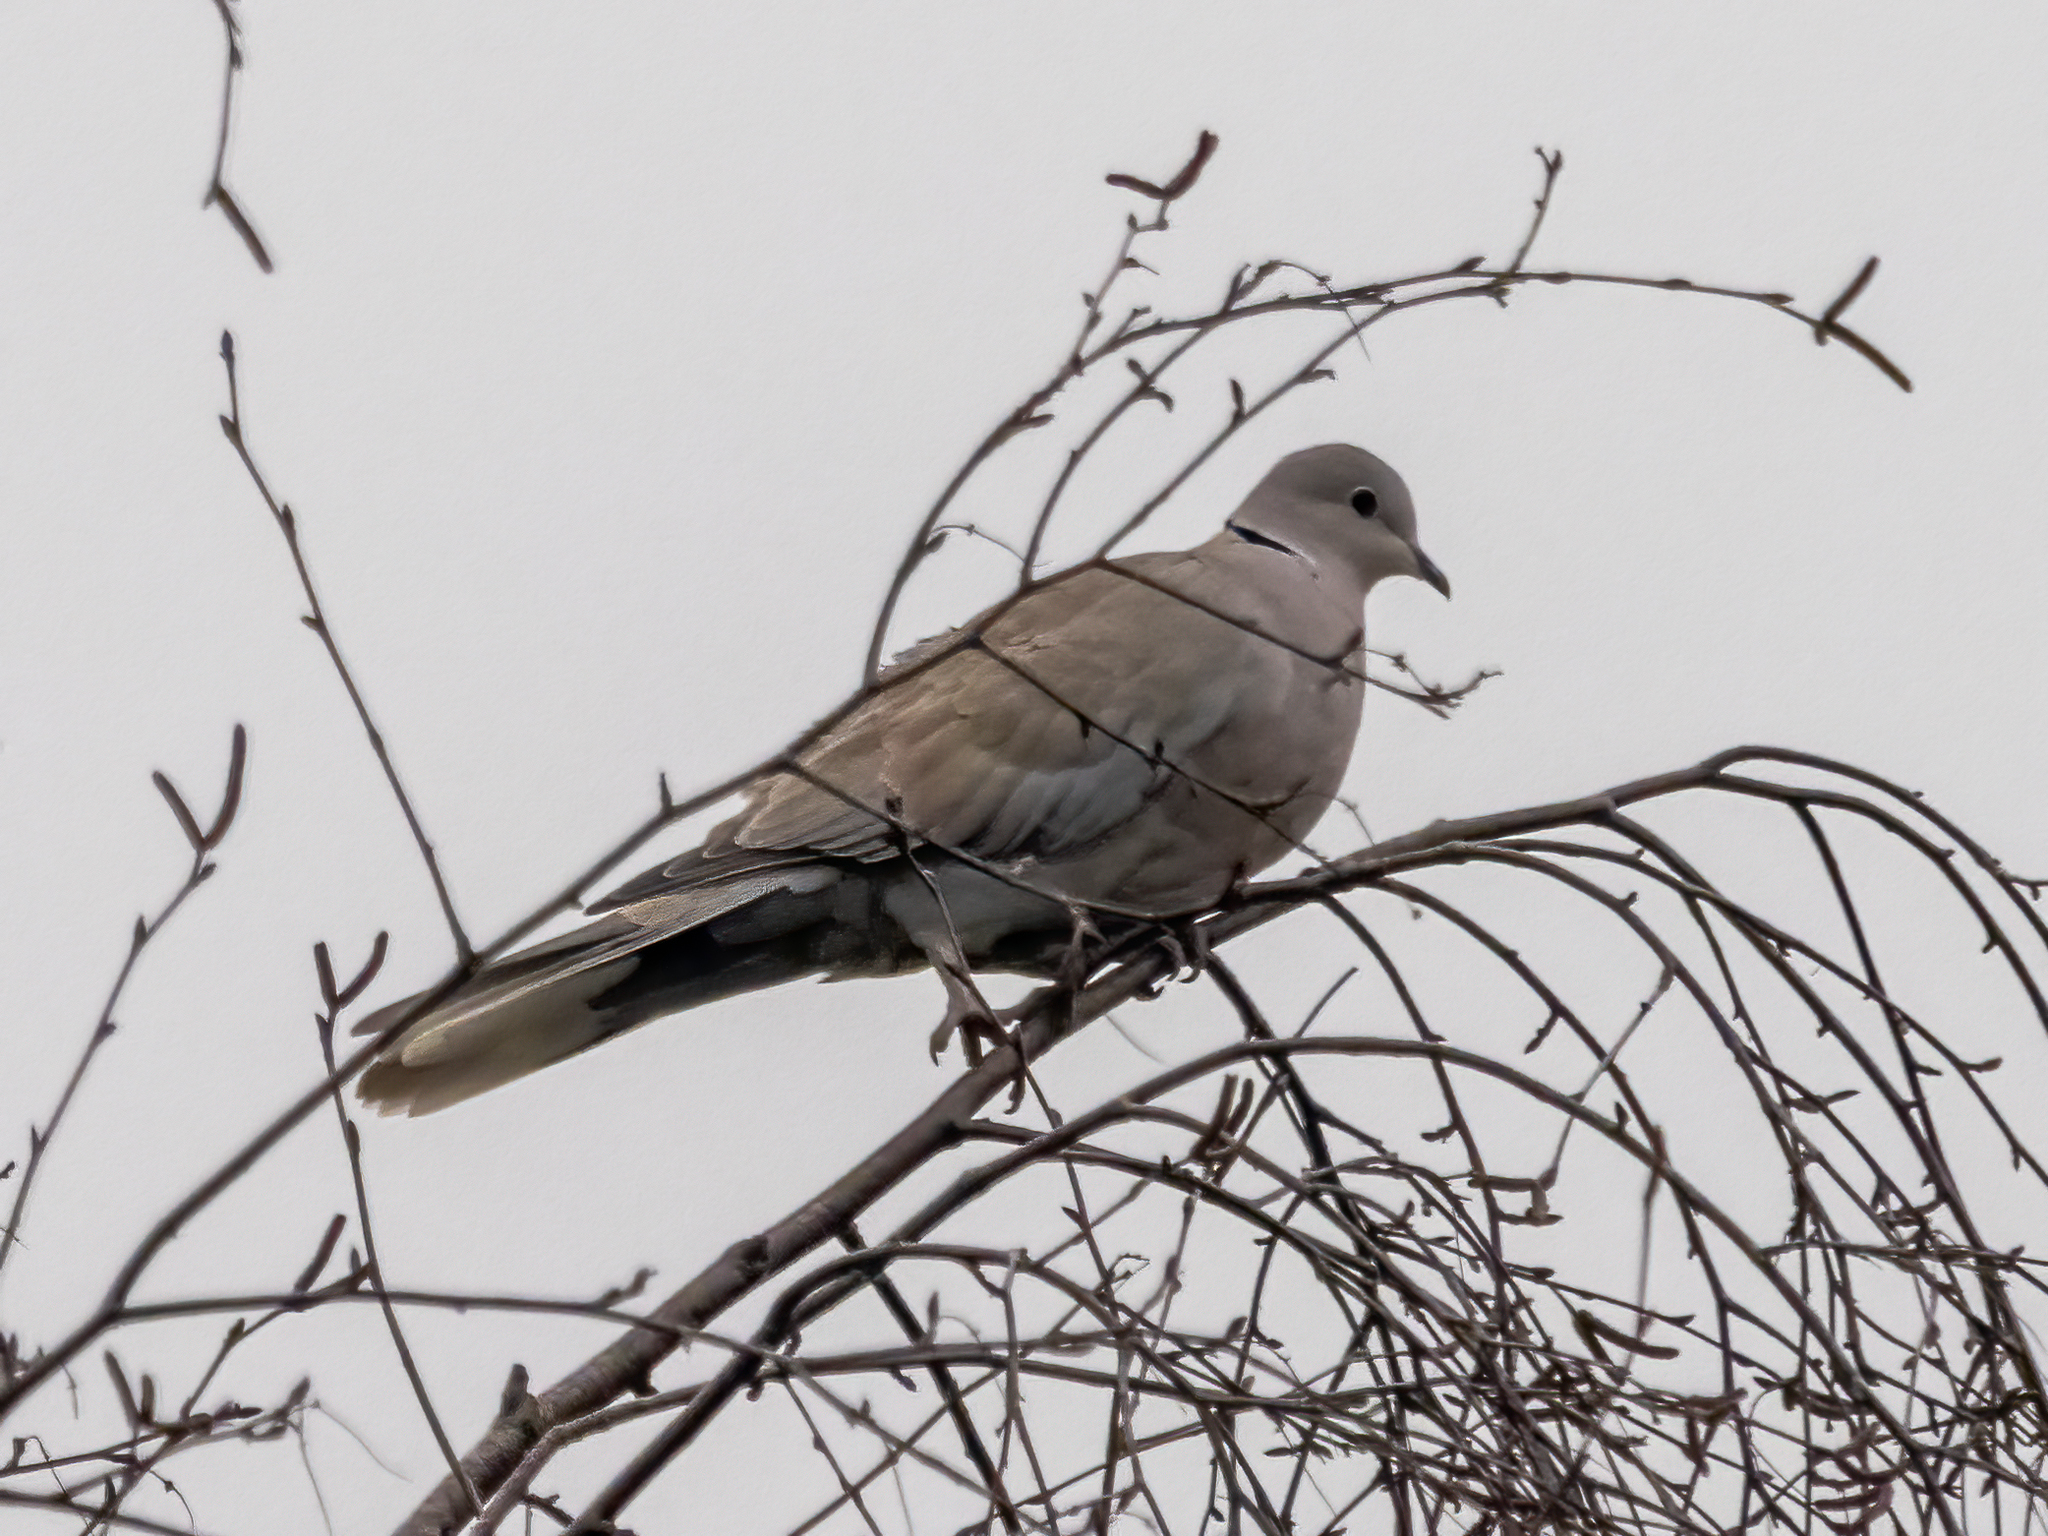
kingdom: Animalia
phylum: Chordata
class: Aves
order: Columbiformes
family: Columbidae
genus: Streptopelia
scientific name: Streptopelia decaocto
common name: Eurasian collared dove
